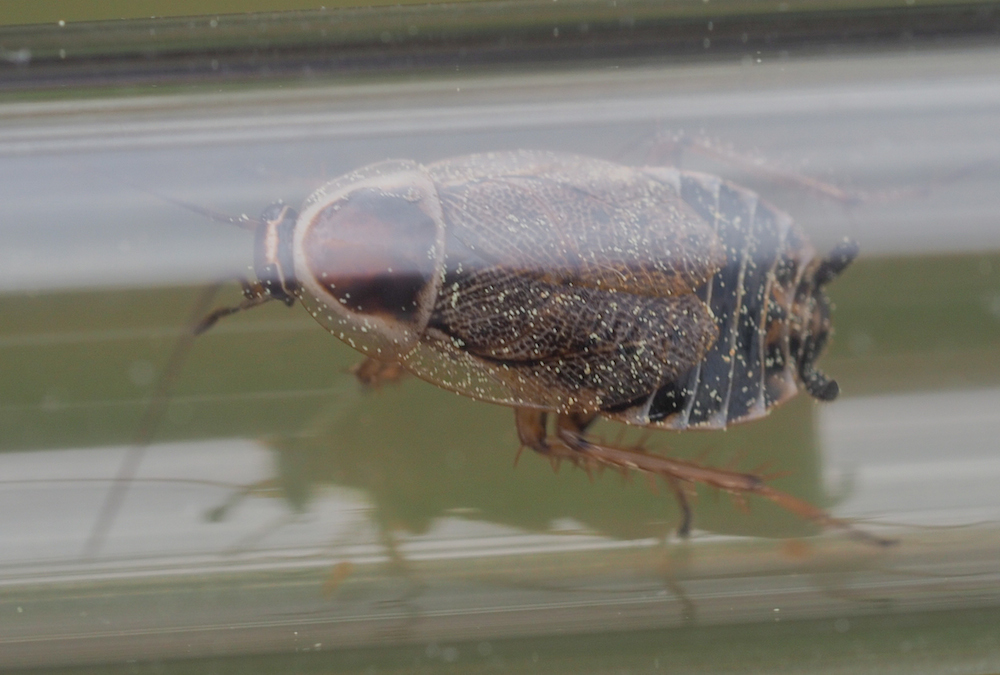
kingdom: Animalia
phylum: Arthropoda
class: Insecta
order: Blattodea
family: Ectobiidae
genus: Ectobius
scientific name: Ectobius sylvestris
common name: Forest cockroach
